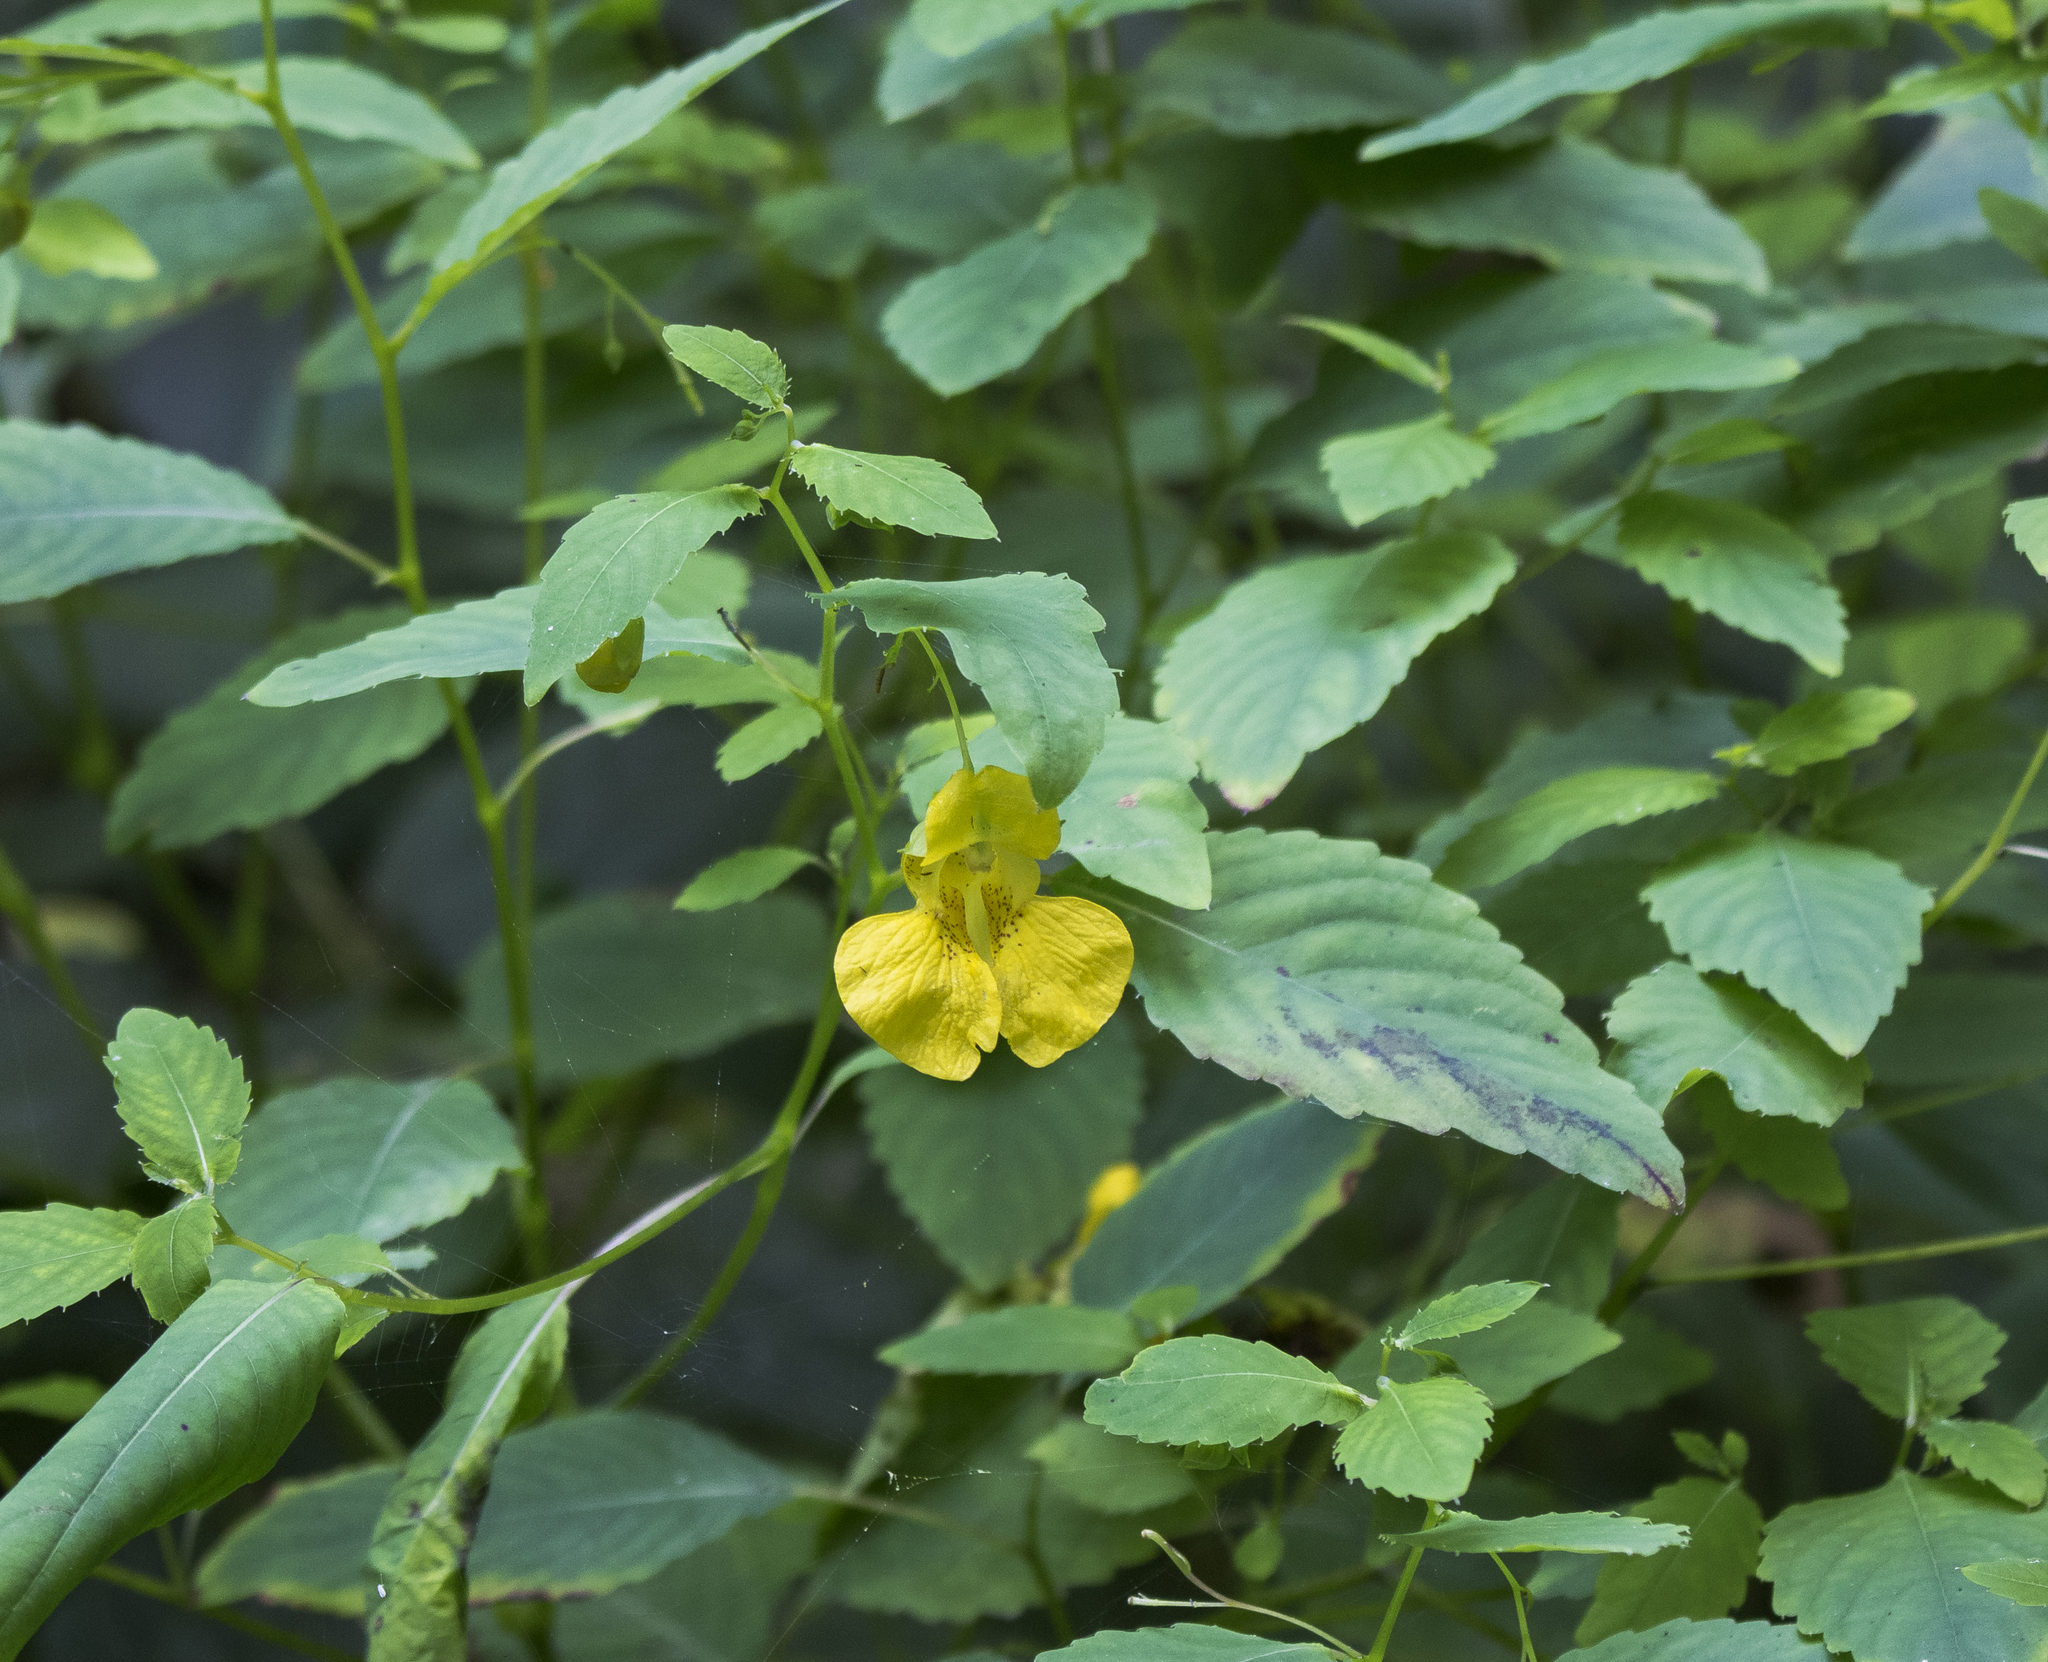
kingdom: Plantae
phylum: Tracheophyta
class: Magnoliopsida
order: Ericales
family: Balsaminaceae
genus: Impatiens
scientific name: Impatiens pallida
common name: Pale snapweed
